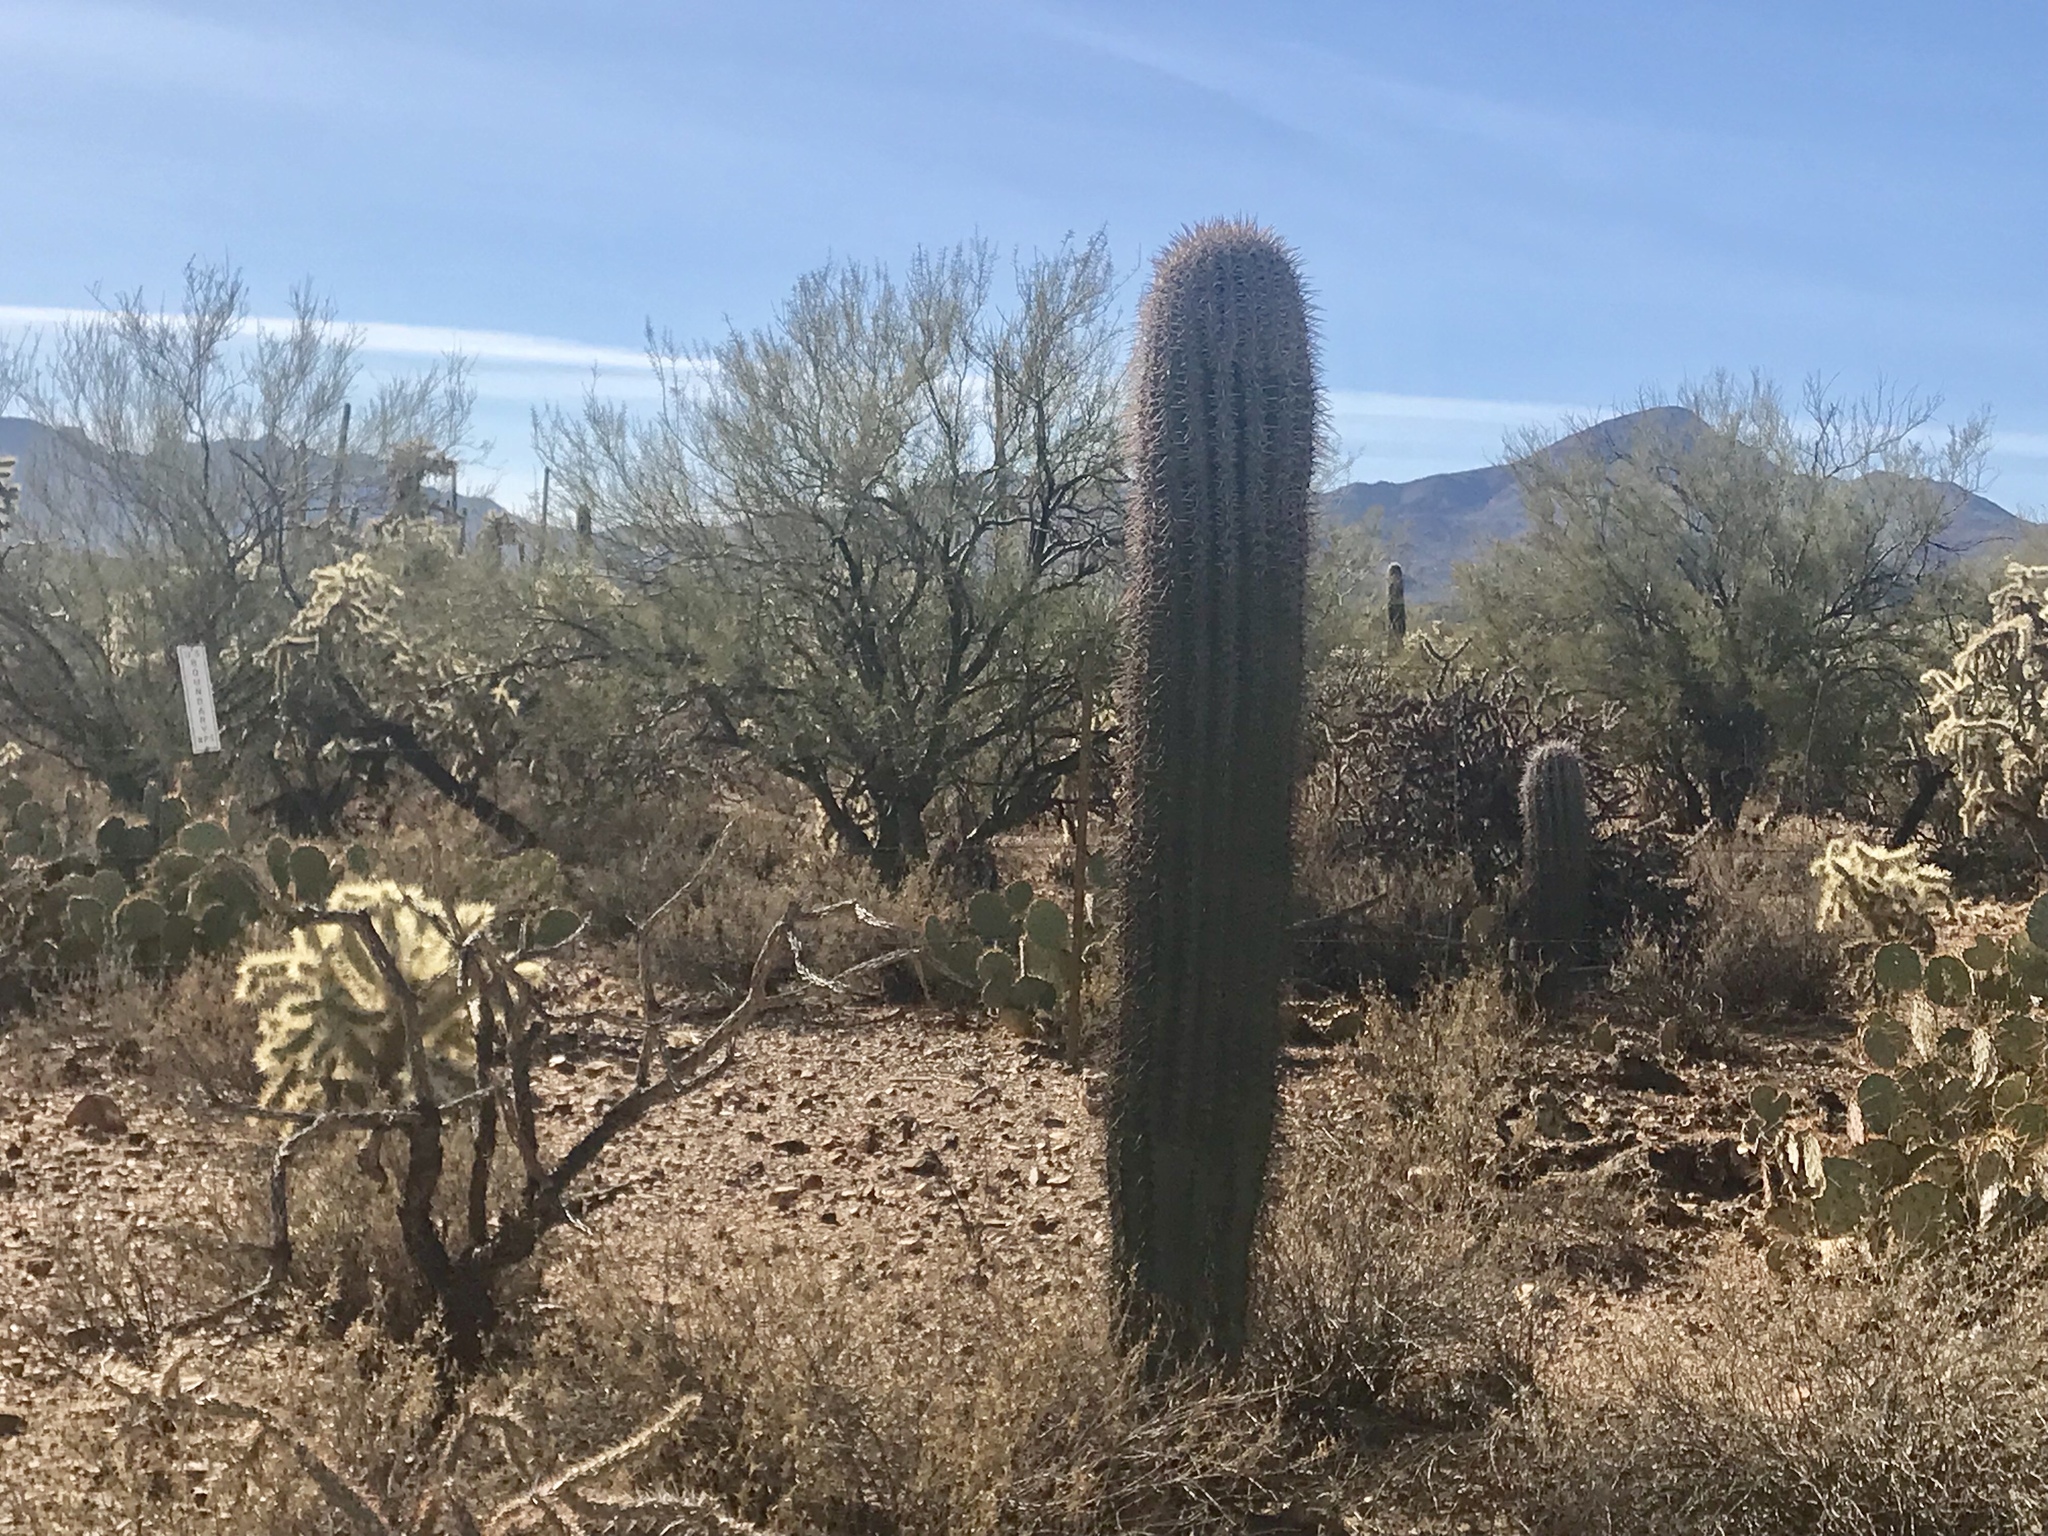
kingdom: Plantae
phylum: Tracheophyta
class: Magnoliopsida
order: Caryophyllales
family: Cactaceae
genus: Carnegiea
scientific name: Carnegiea gigantea
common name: Saguaro
